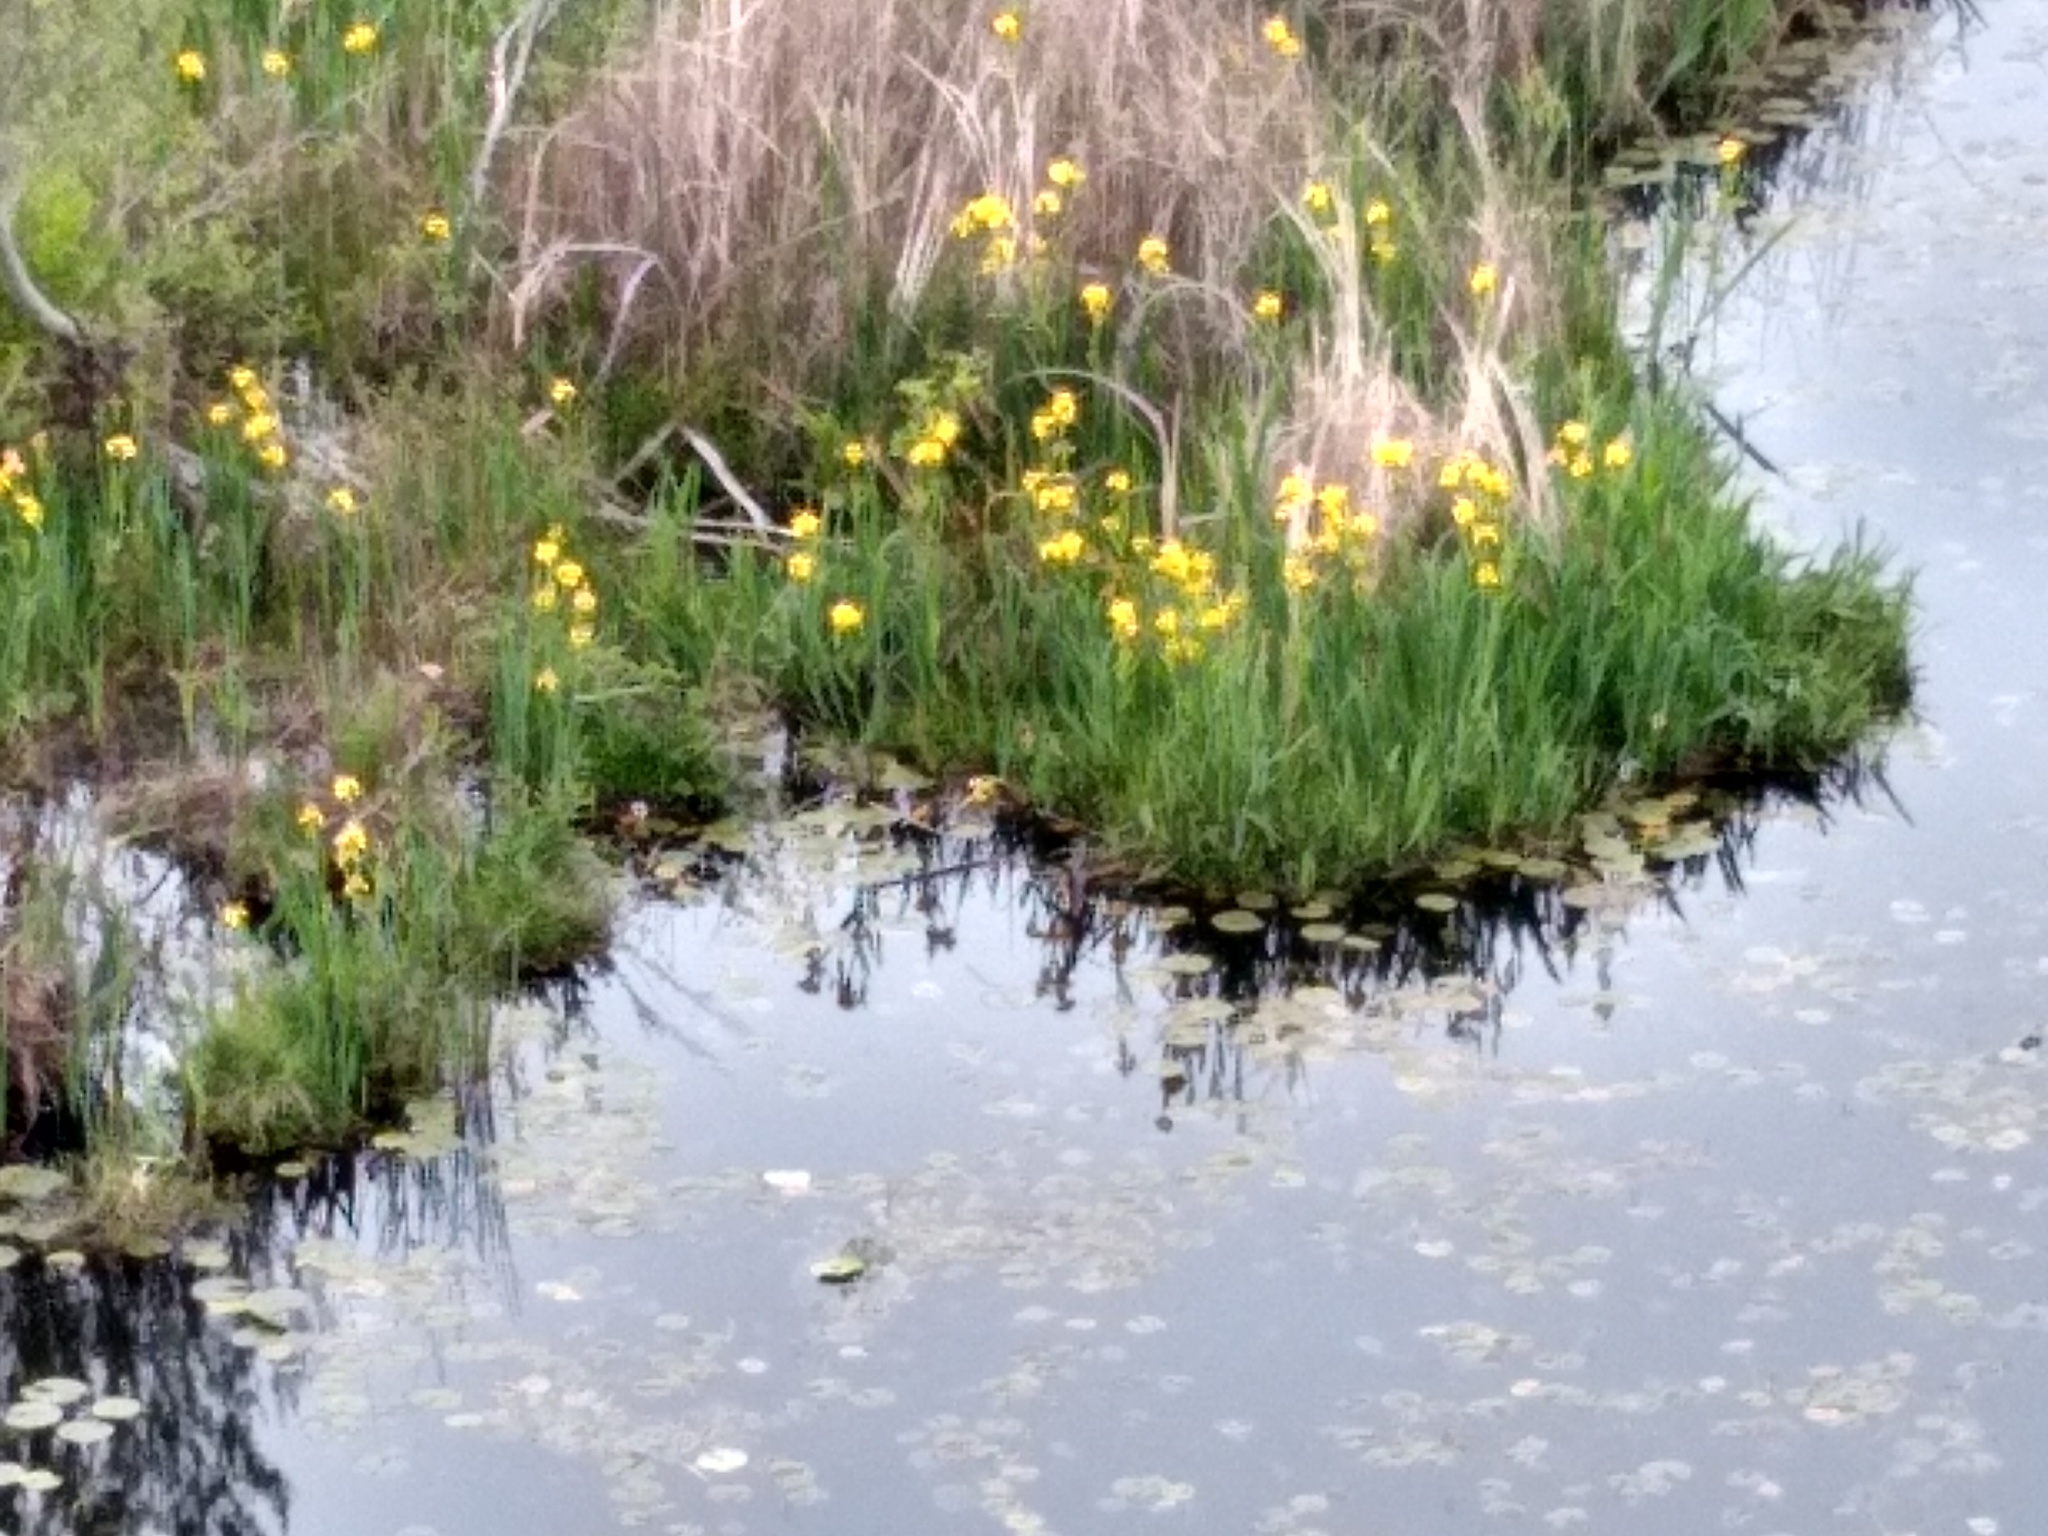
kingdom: Plantae
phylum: Tracheophyta
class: Liliopsida
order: Asparagales
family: Iridaceae
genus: Iris
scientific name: Iris pseudacorus
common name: Yellow flag
